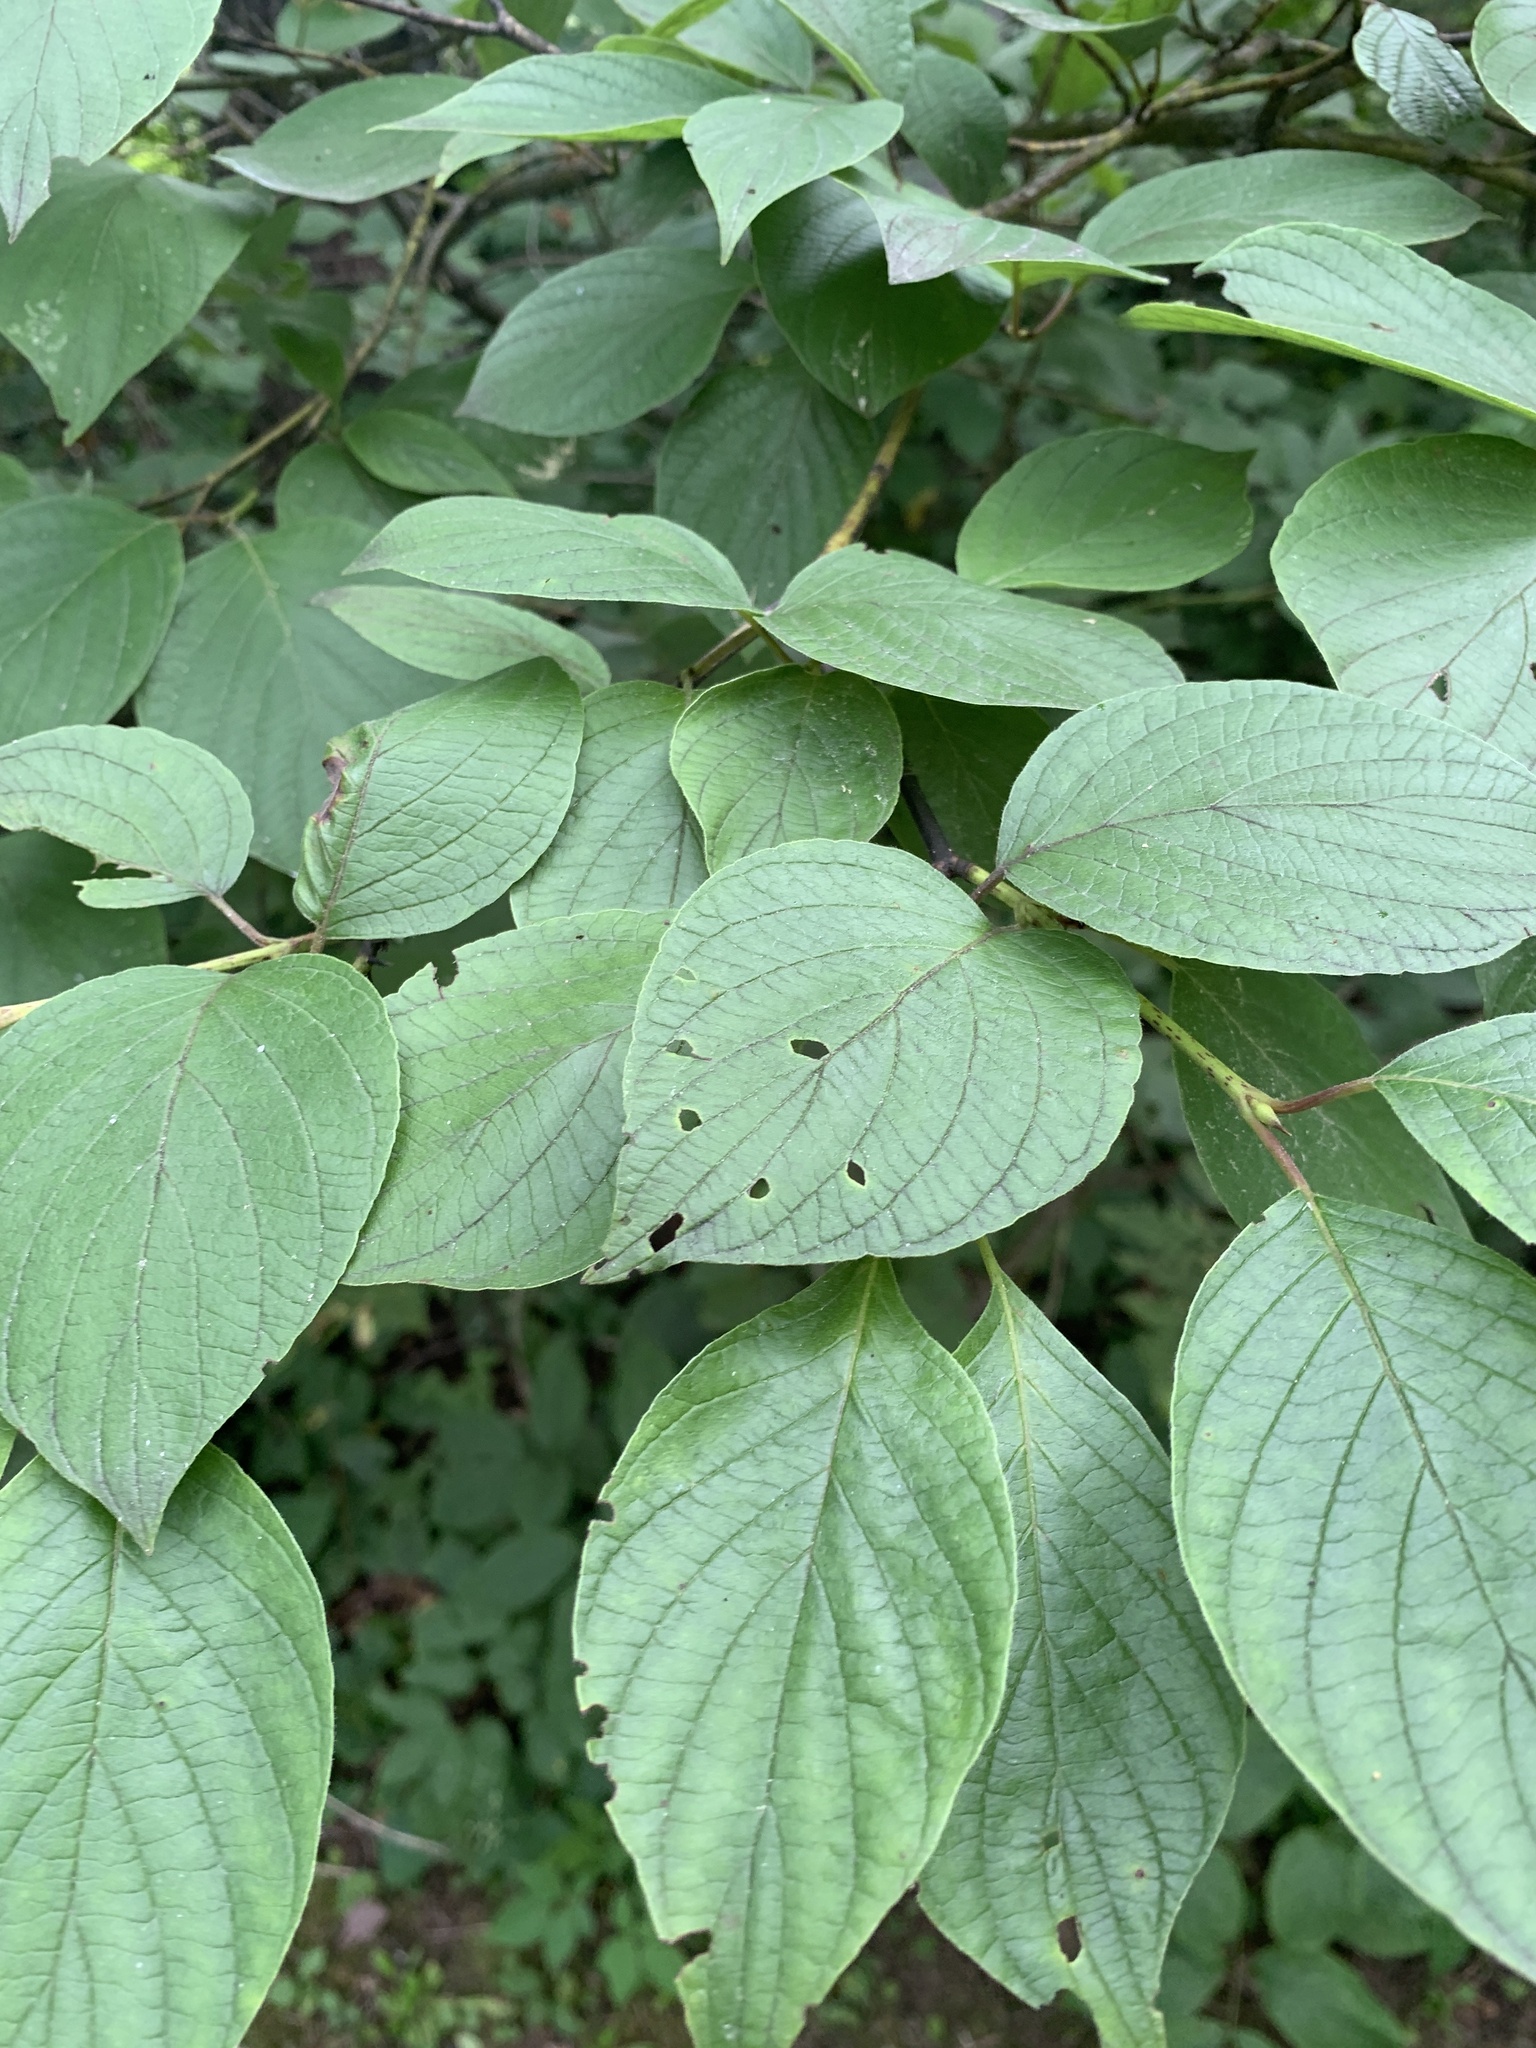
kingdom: Plantae
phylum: Tracheophyta
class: Magnoliopsida
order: Cornales
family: Cornaceae
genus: Cornus
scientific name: Cornus rugosa
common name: Round-leaf dogwood
